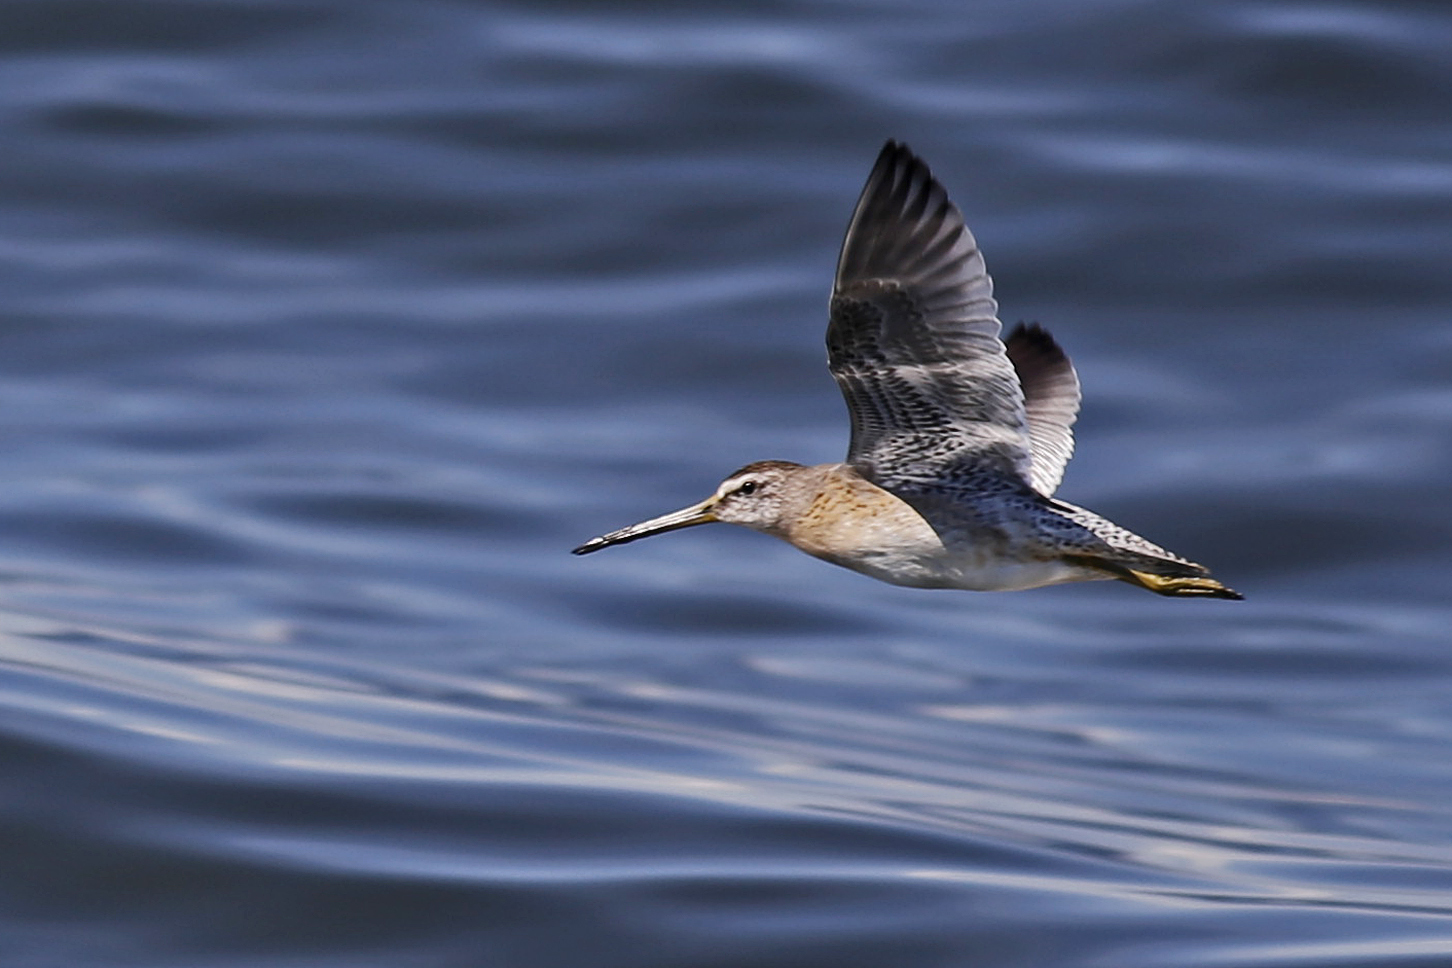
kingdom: Animalia
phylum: Chordata
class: Aves
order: Charadriiformes
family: Scolopacidae
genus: Limnodromus
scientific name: Limnodromus griseus
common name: Short-billed dowitcher
